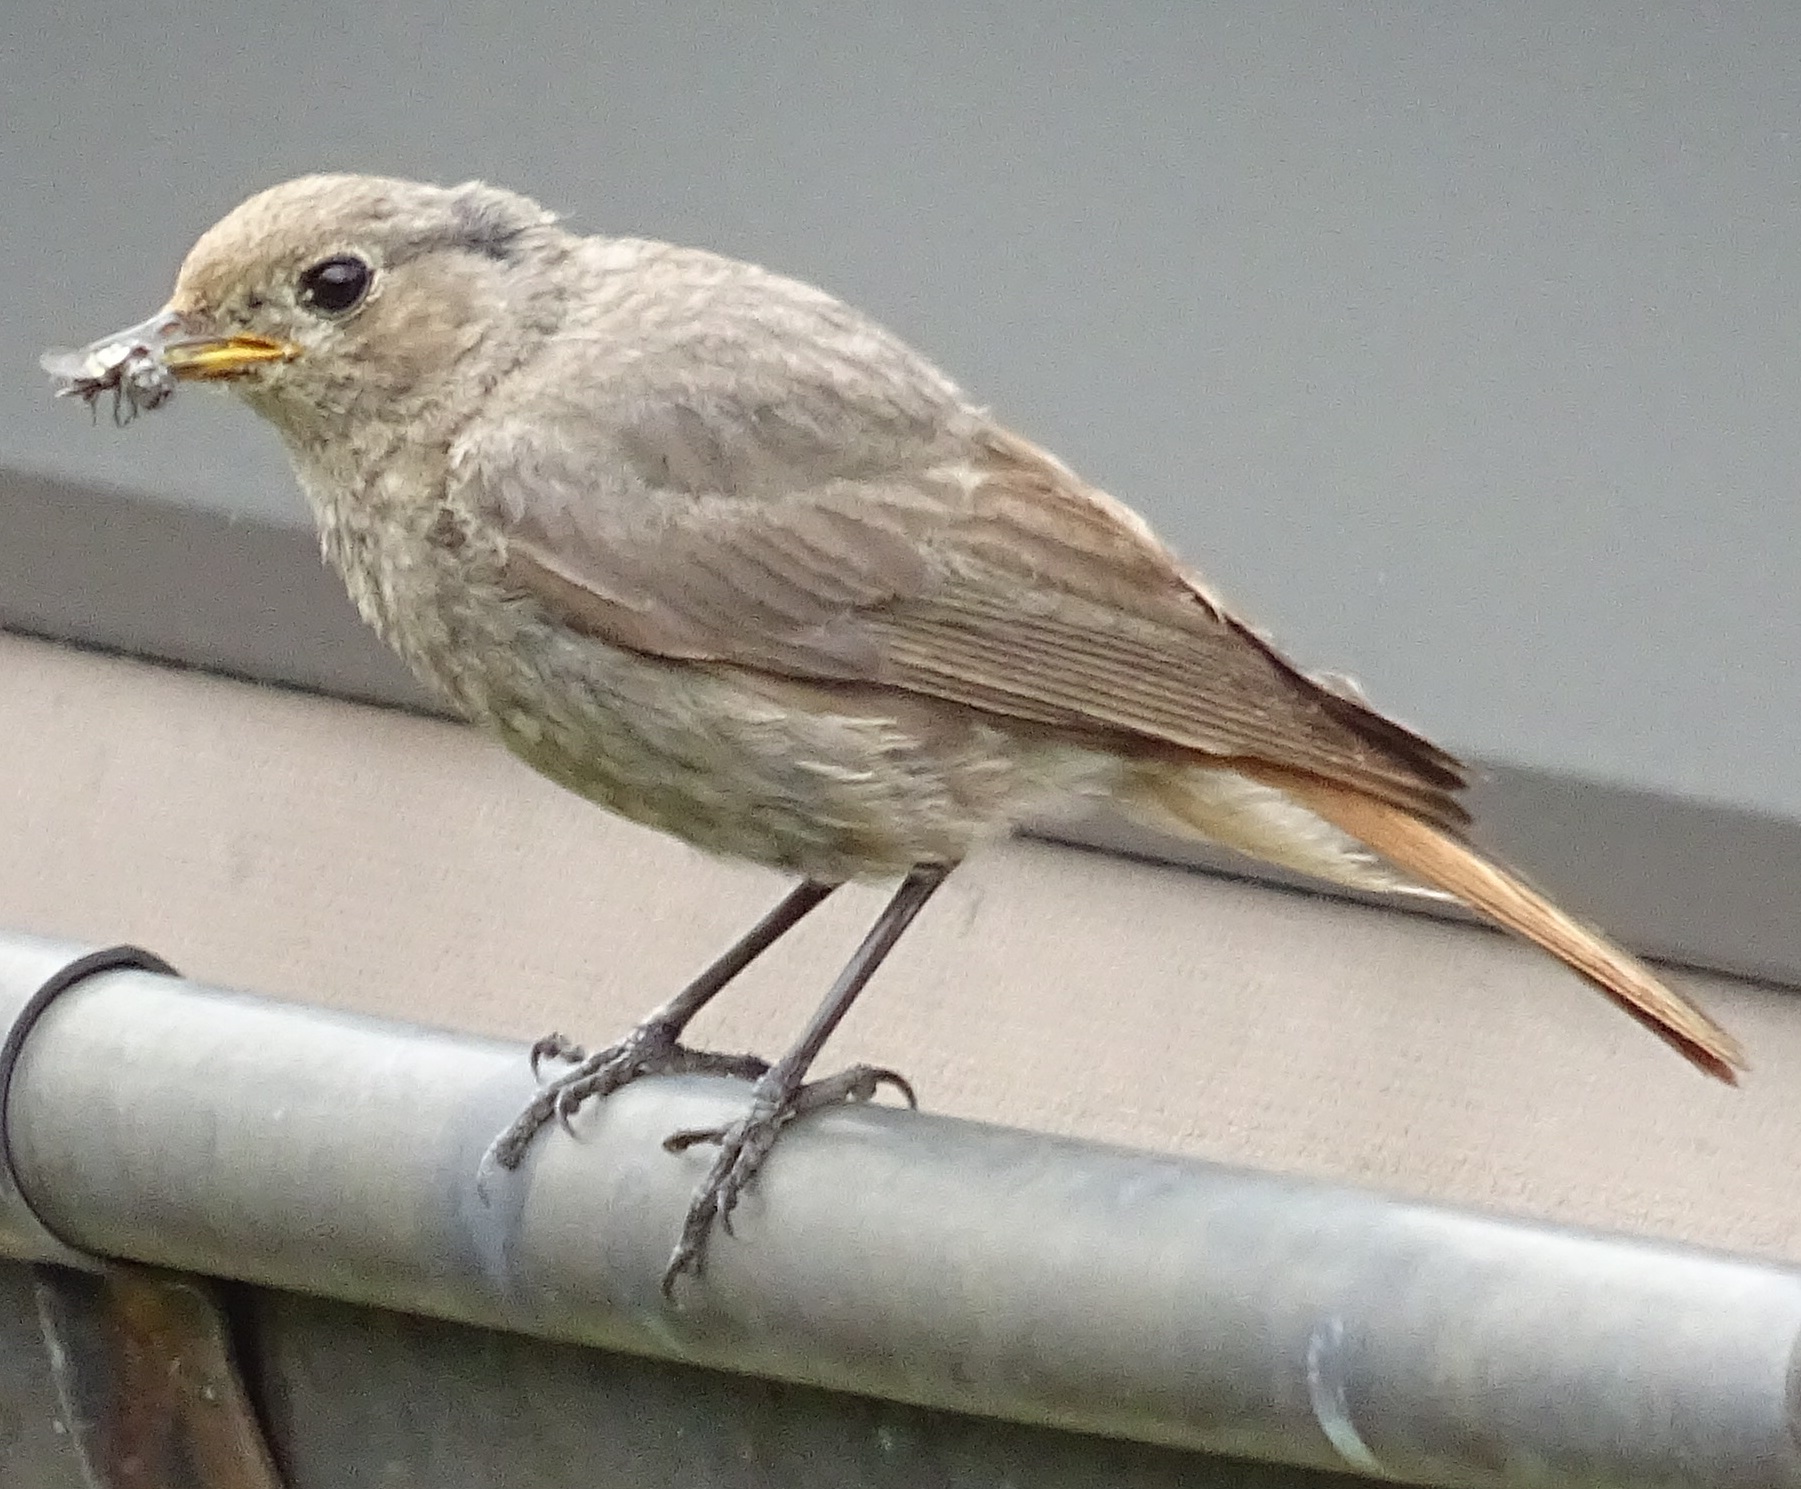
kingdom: Animalia
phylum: Chordata
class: Aves
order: Passeriformes
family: Muscicapidae
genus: Phoenicurus
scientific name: Phoenicurus ochruros
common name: Black redstart
